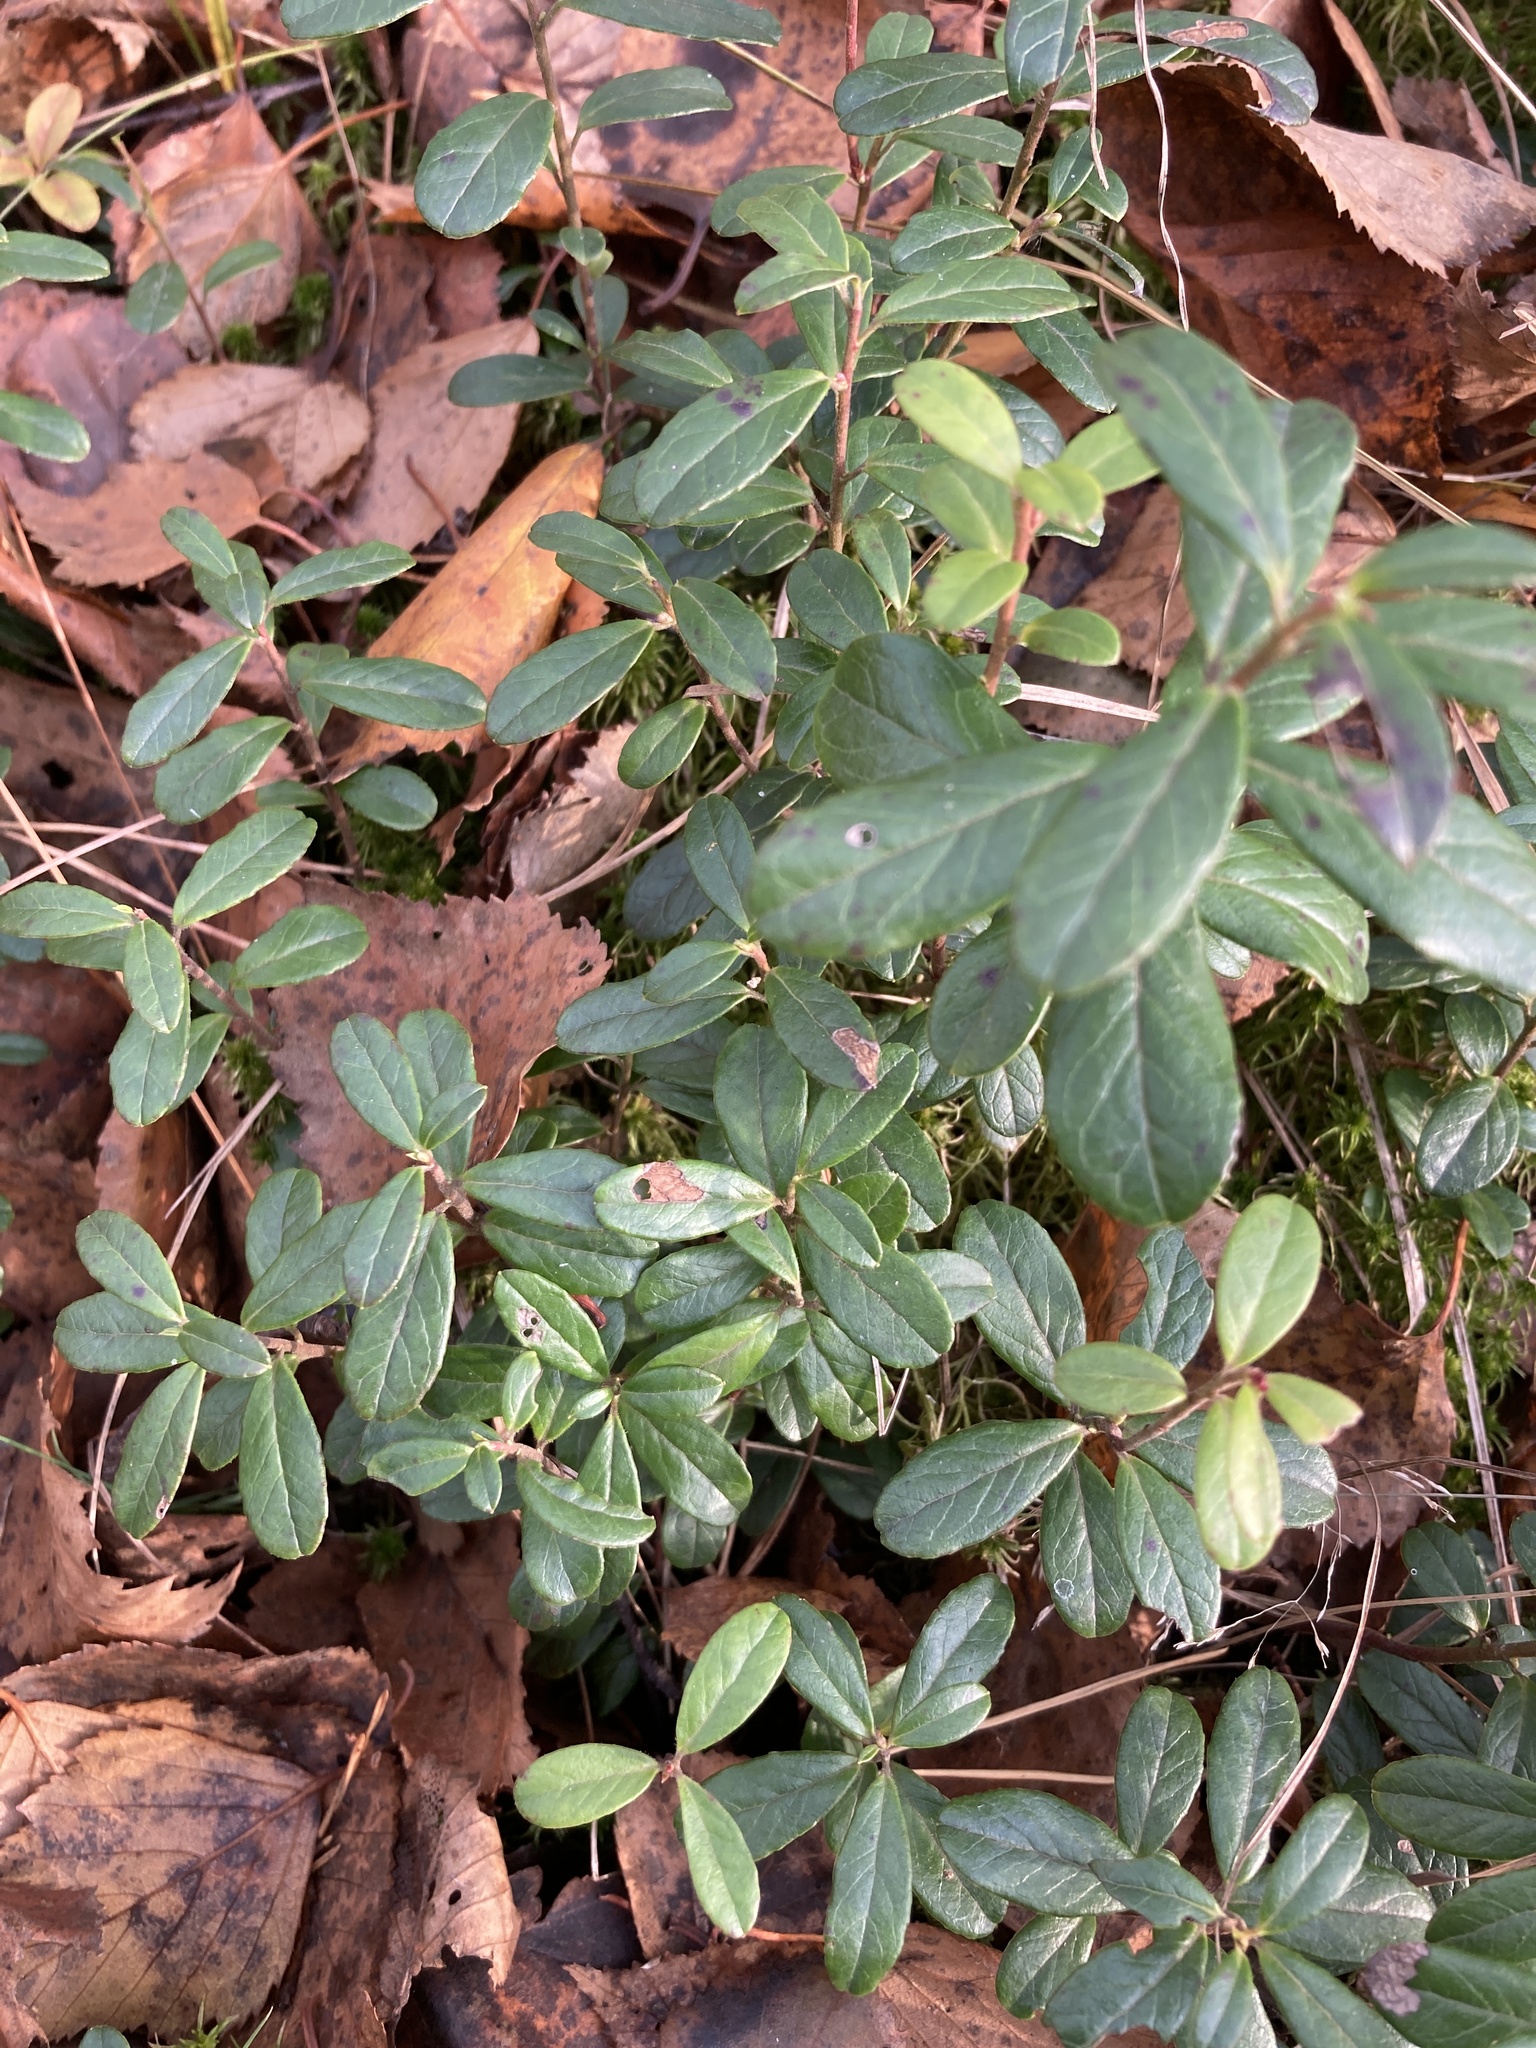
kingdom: Plantae
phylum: Tracheophyta
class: Magnoliopsida
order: Ericales
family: Ericaceae
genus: Vaccinium
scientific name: Vaccinium vitis-idaea
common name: Cowberry
